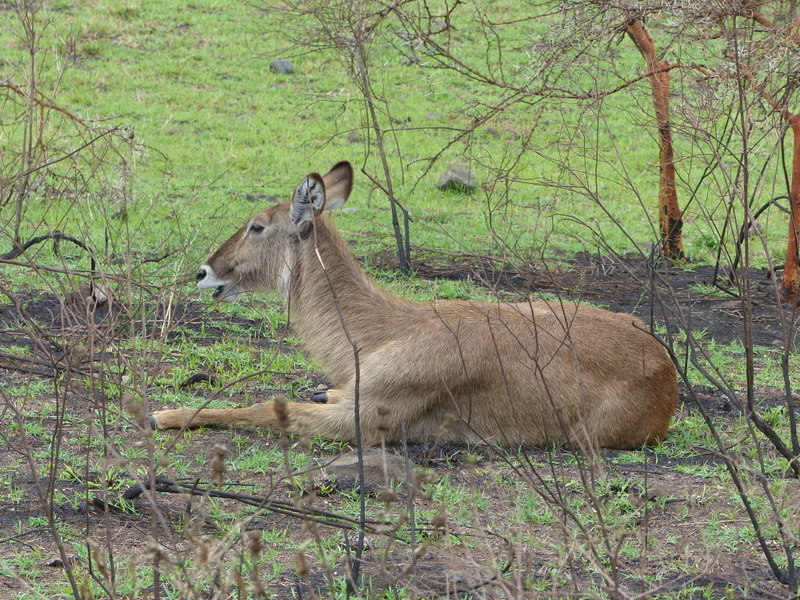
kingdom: Animalia
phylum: Chordata
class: Mammalia
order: Artiodactyla
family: Bovidae
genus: Kobus
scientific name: Kobus ellipsiprymnus
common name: Waterbuck
